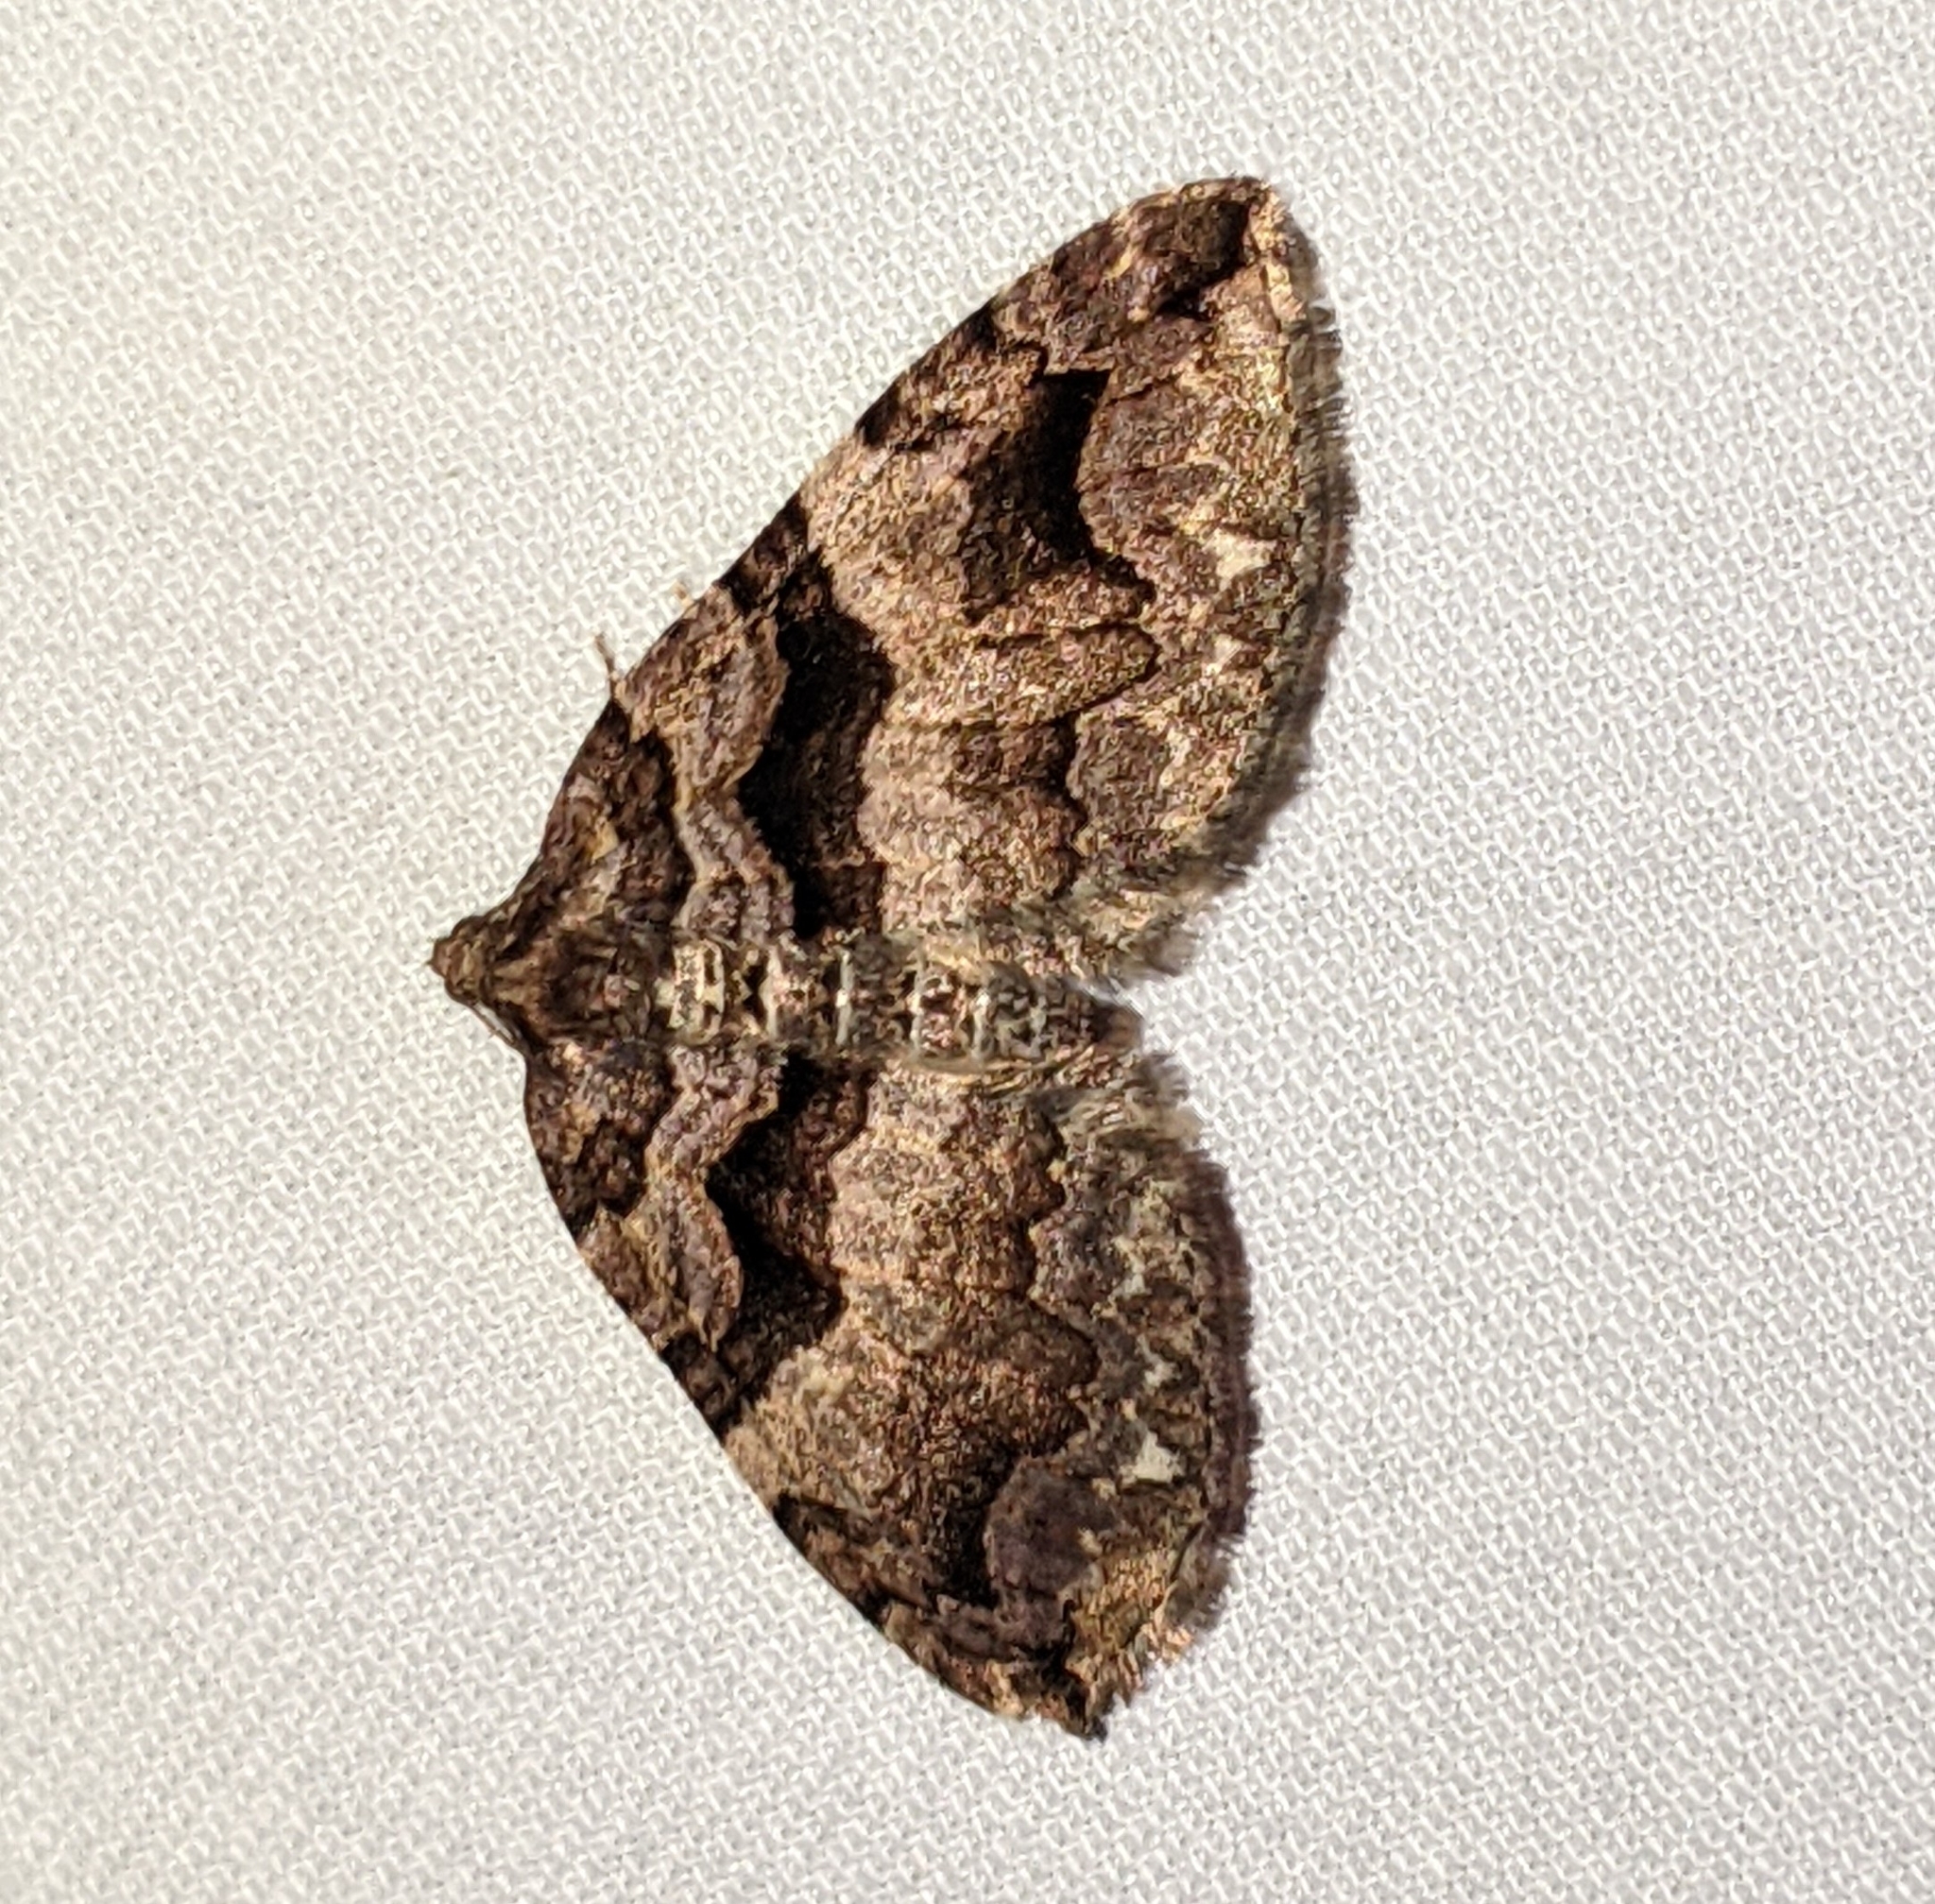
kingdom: Animalia
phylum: Arthropoda
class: Insecta
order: Lepidoptera
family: Geometridae
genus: Anticlea
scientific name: Anticlea vasiliata
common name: Variable carpet
